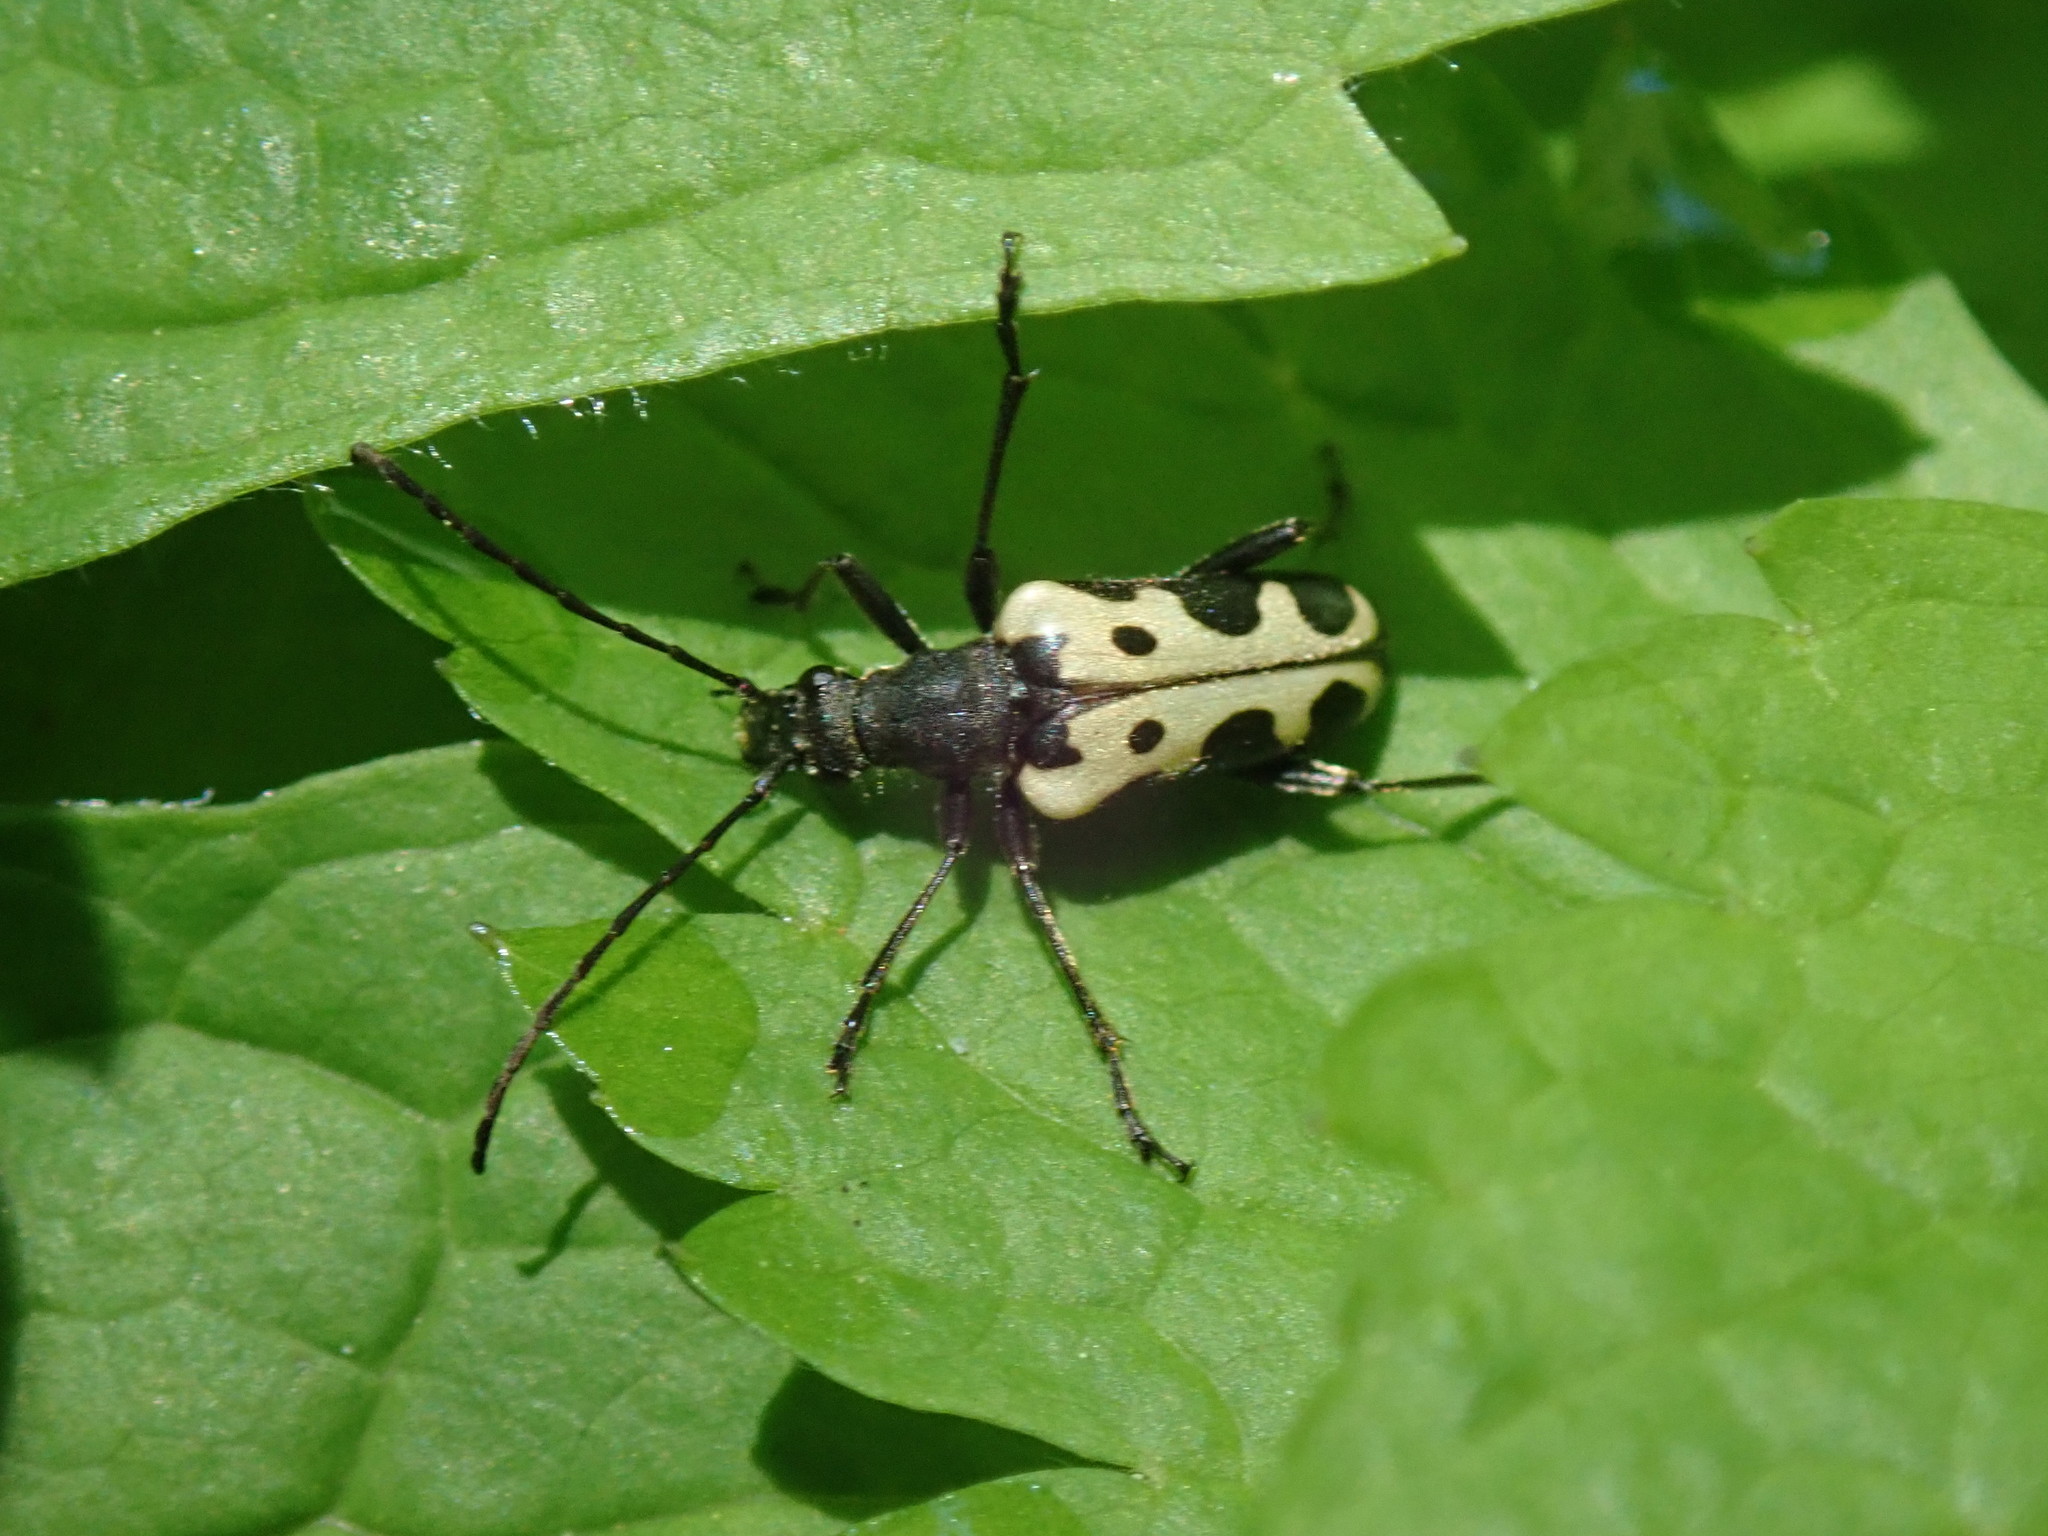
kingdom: Animalia
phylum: Arthropoda
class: Insecta
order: Coleoptera
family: Cerambycidae
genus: Evodinus
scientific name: Evodinus monticola
